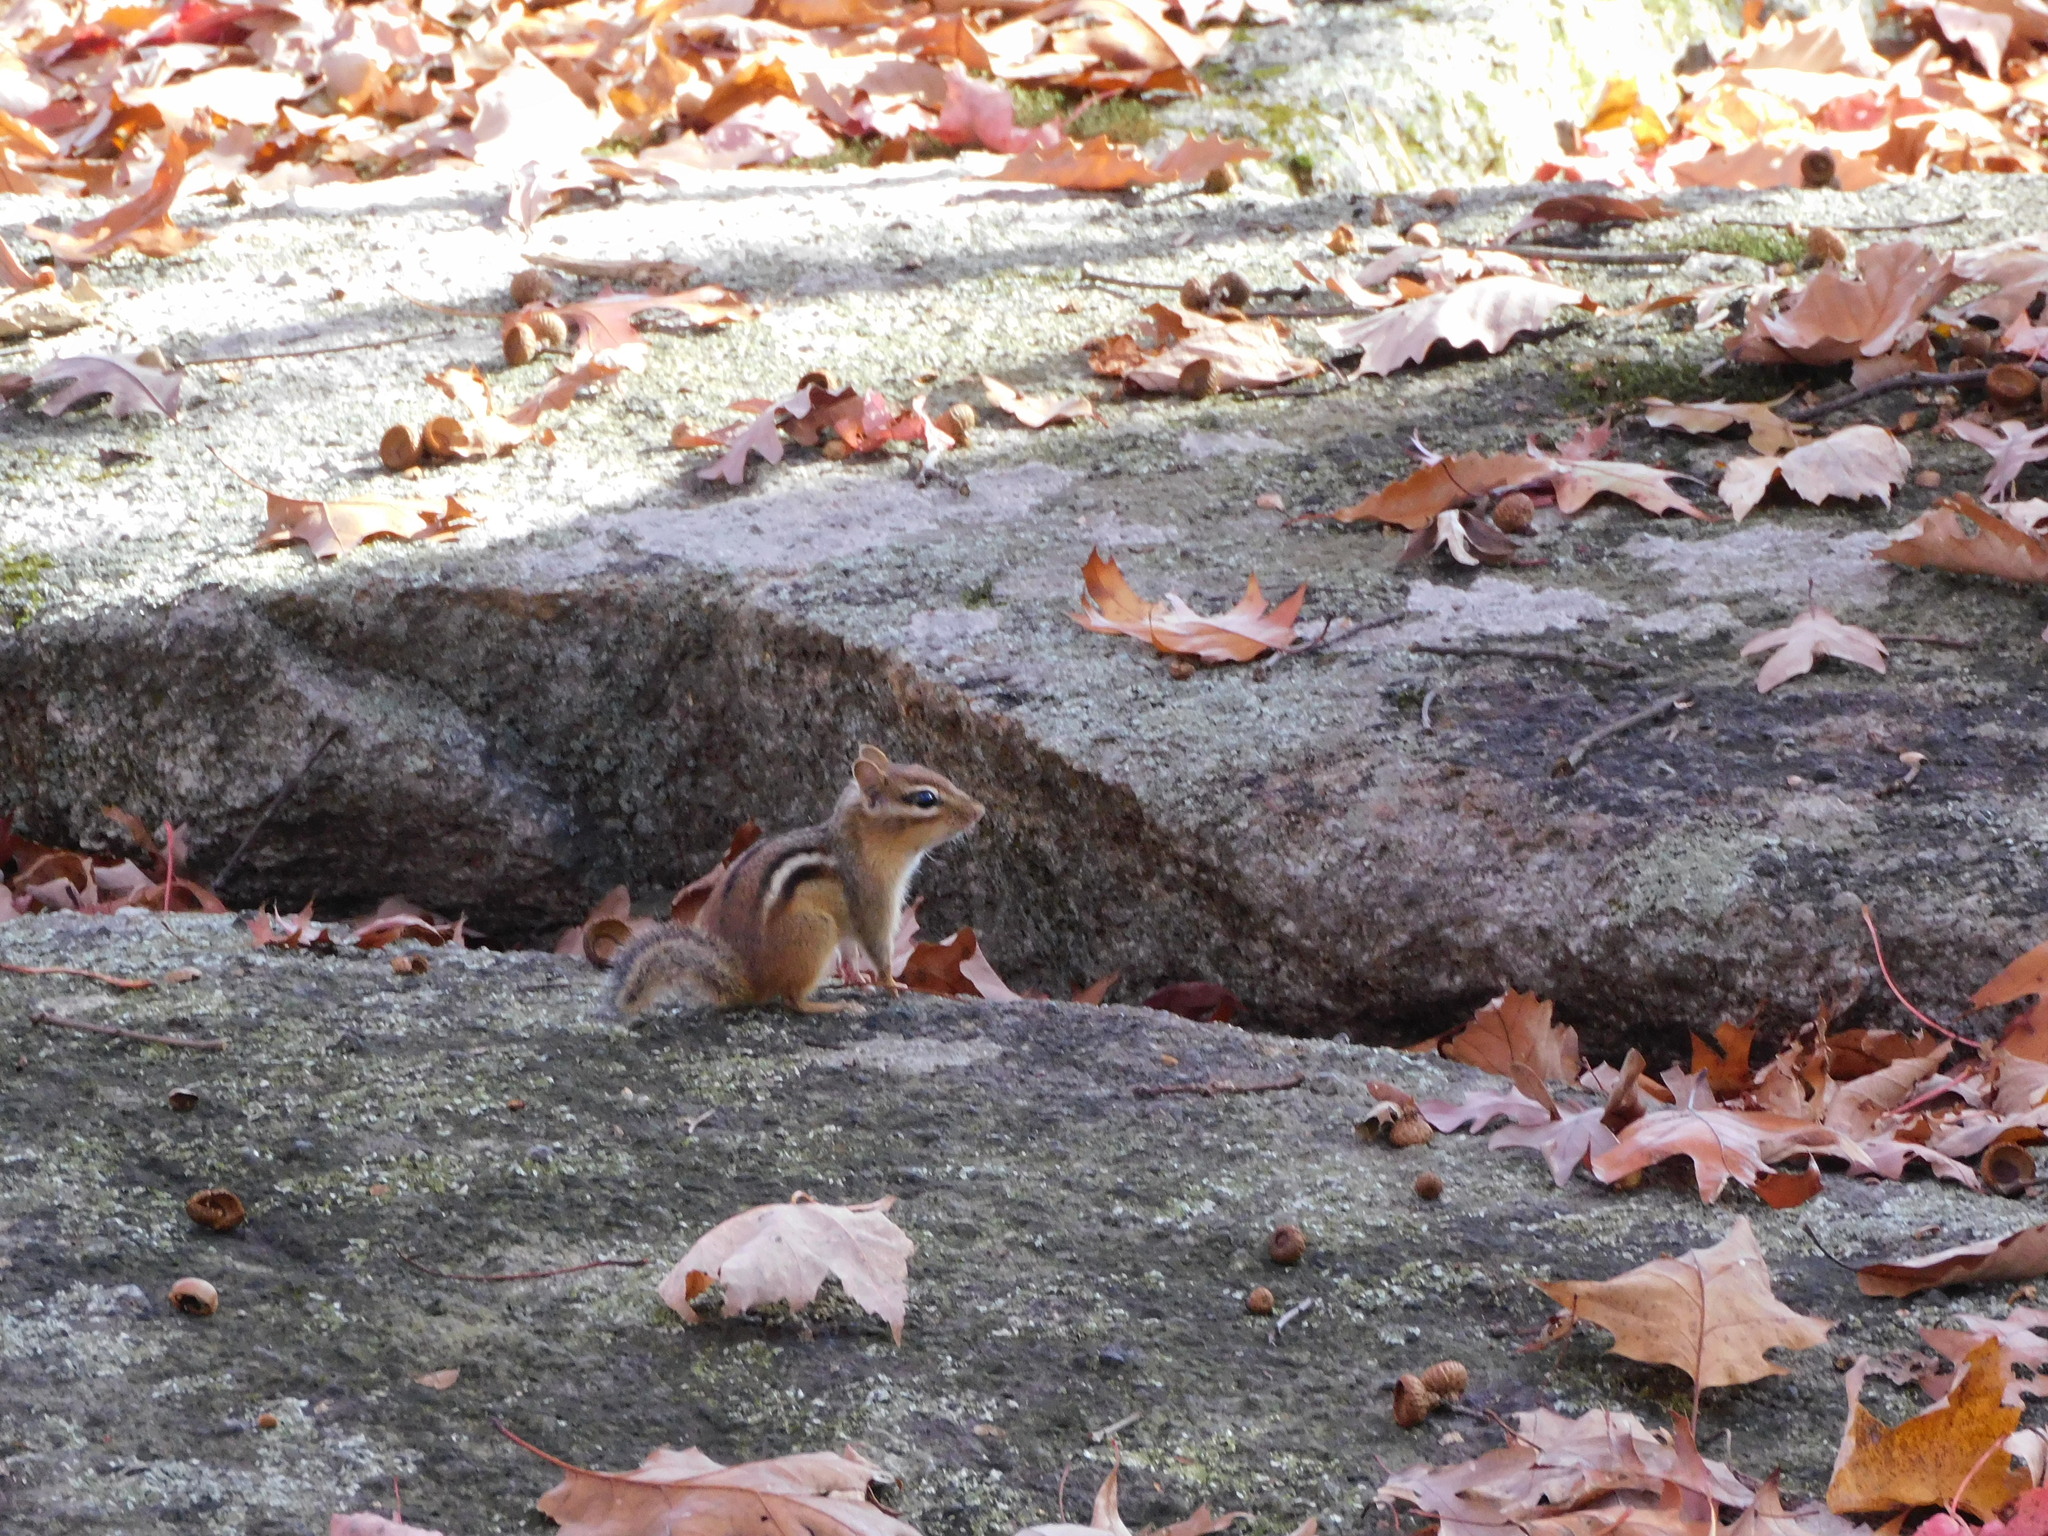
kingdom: Animalia
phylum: Chordata
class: Mammalia
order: Rodentia
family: Sciuridae
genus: Tamias
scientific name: Tamias striatus
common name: Eastern chipmunk
